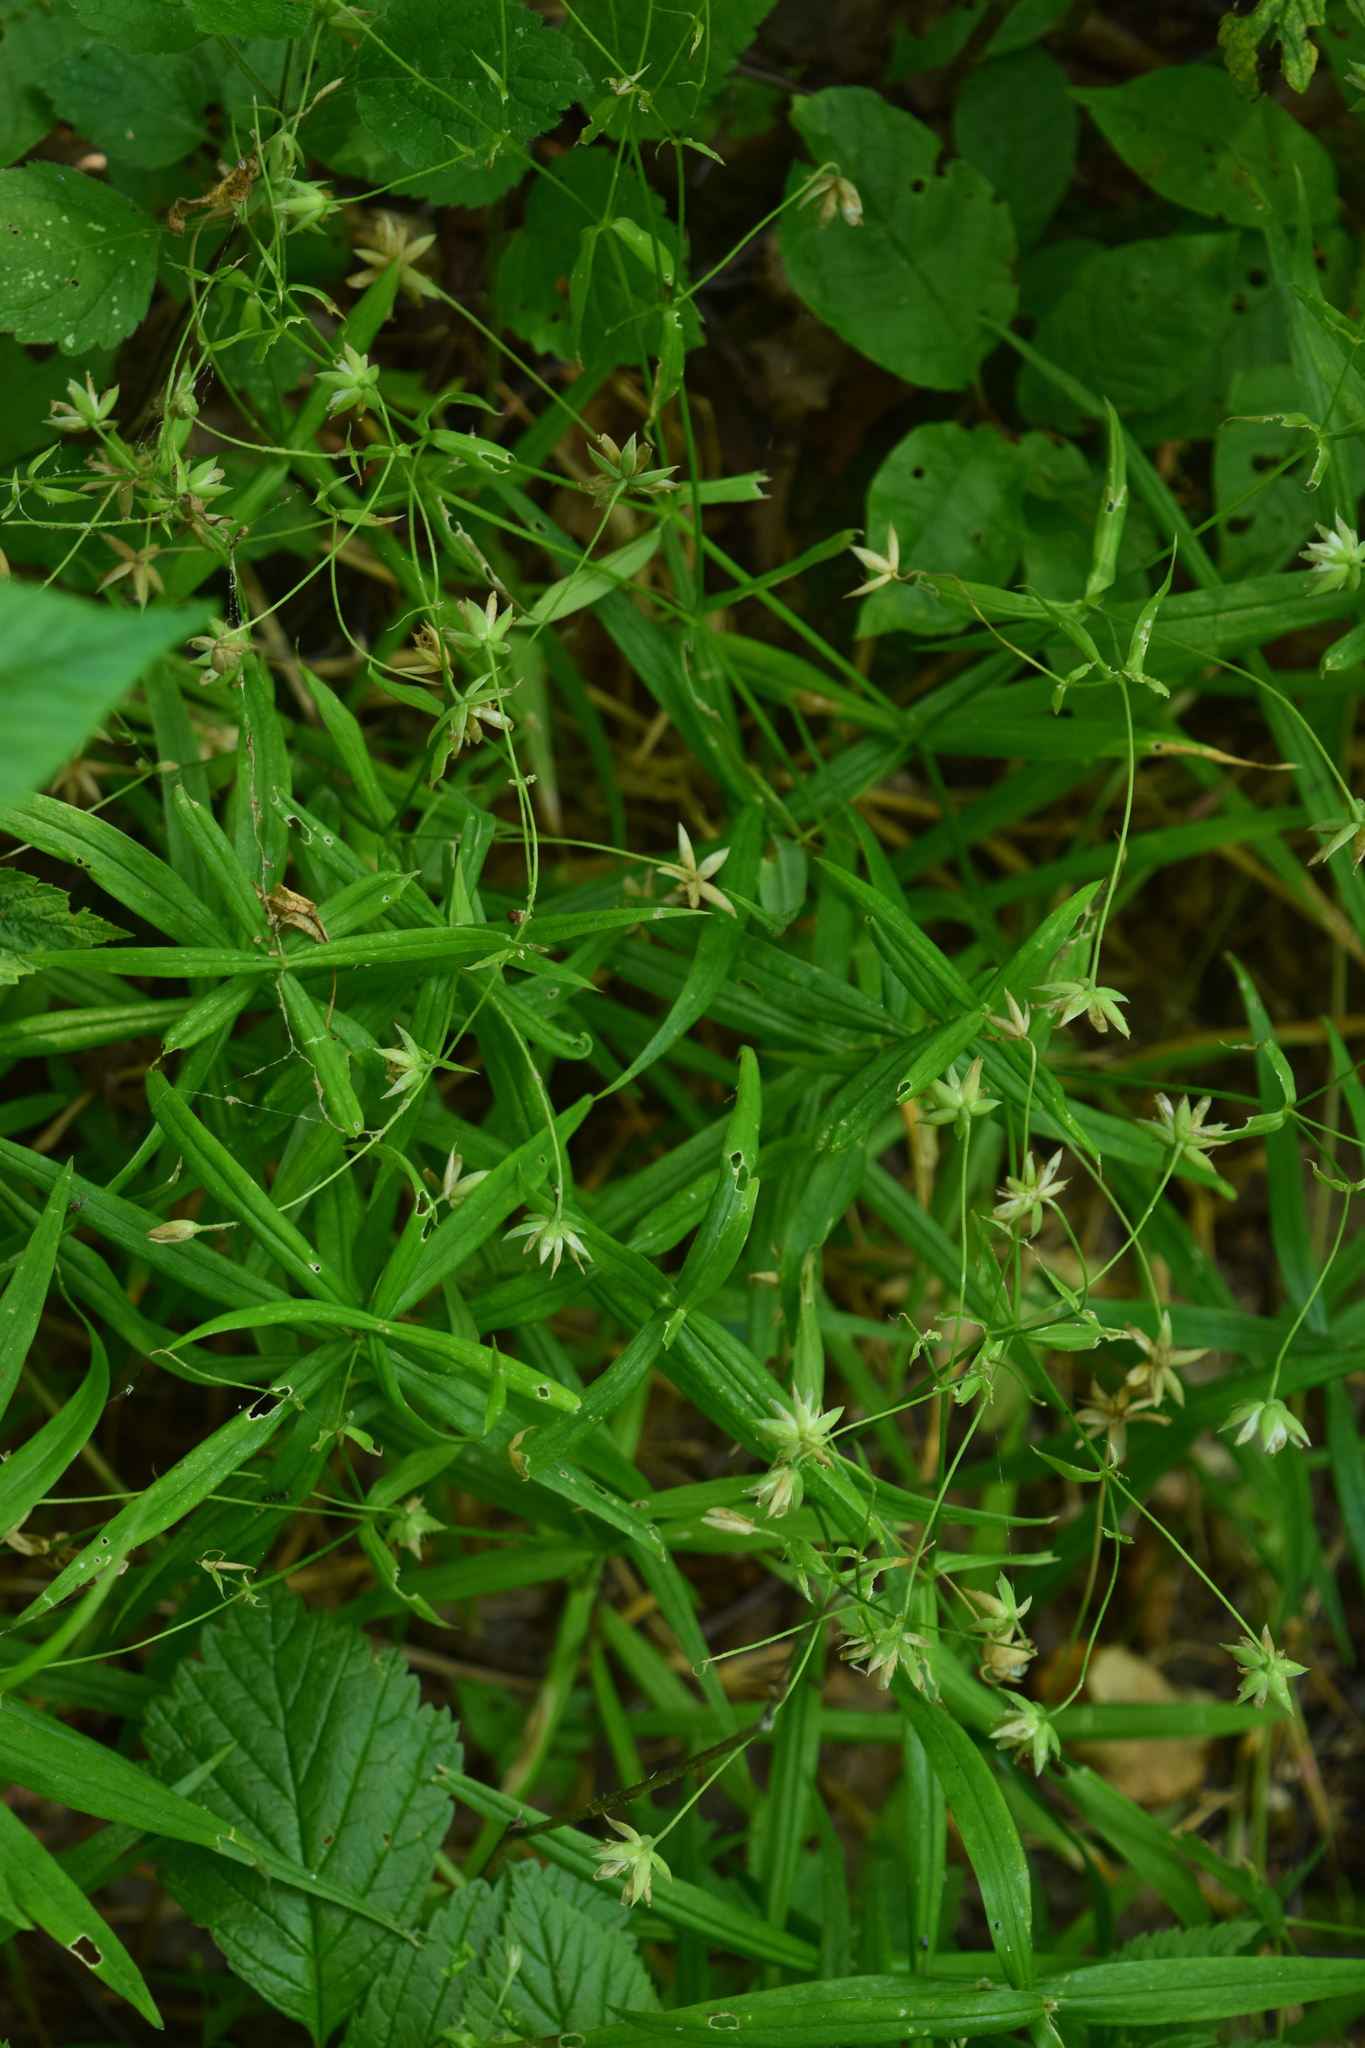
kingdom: Plantae
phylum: Tracheophyta
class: Magnoliopsida
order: Caryophyllales
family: Caryophyllaceae
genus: Rabelera
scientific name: Rabelera holostea
